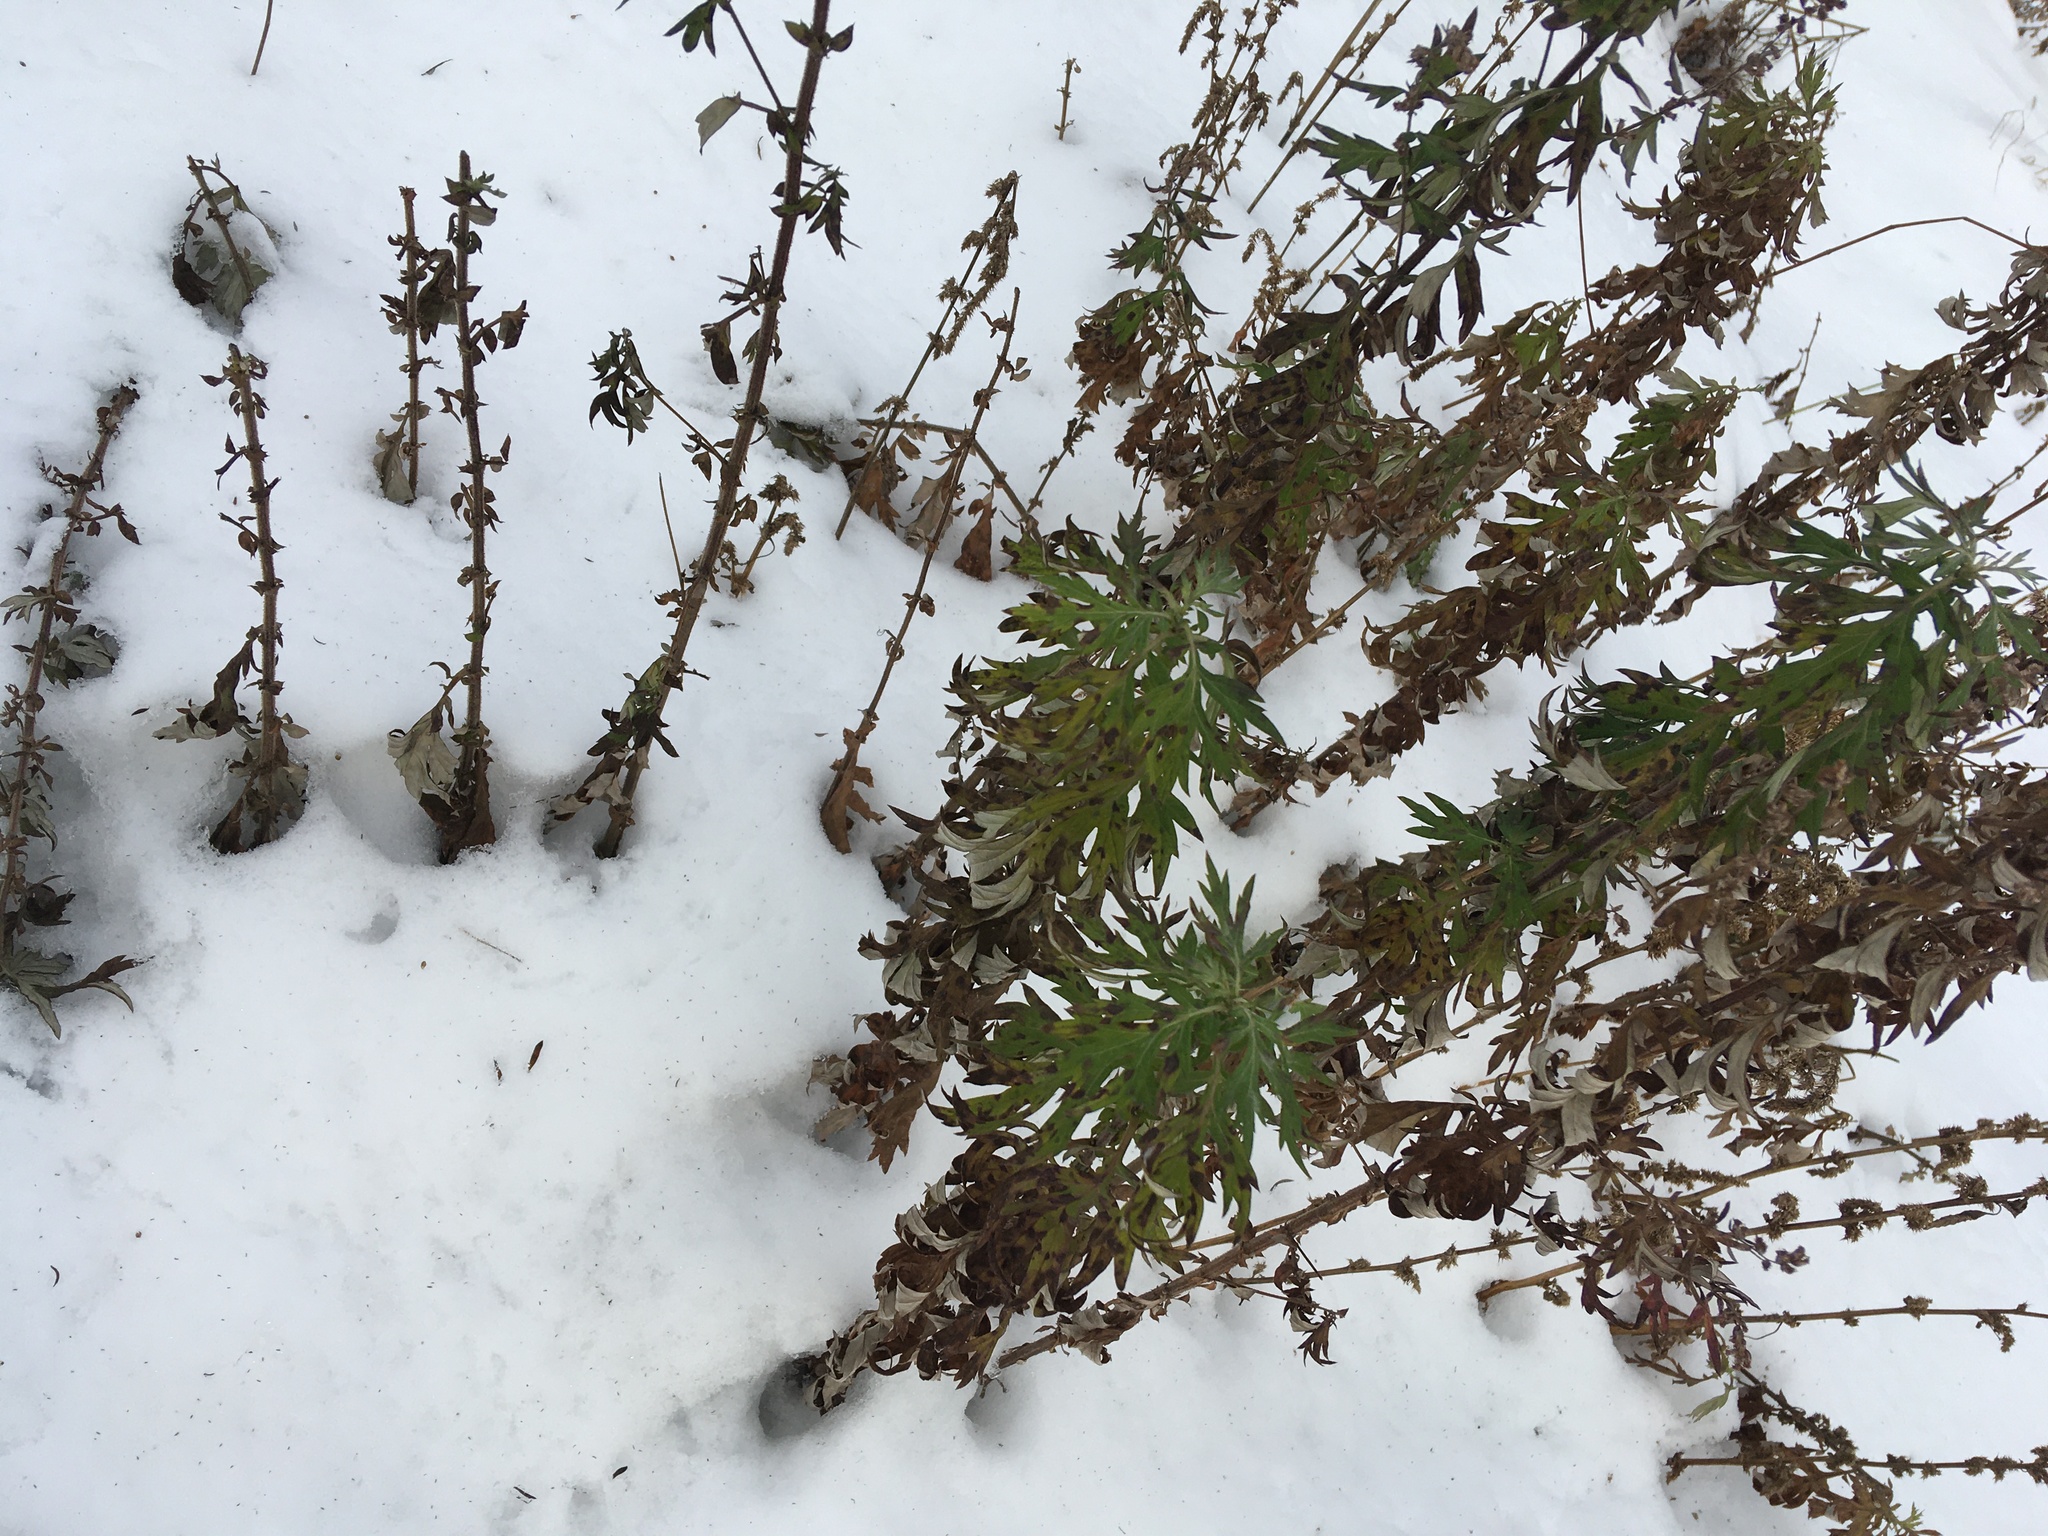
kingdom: Plantae
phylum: Tracheophyta
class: Magnoliopsida
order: Asterales
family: Asteraceae
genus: Artemisia
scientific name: Artemisia vulgaris
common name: Mugwort
